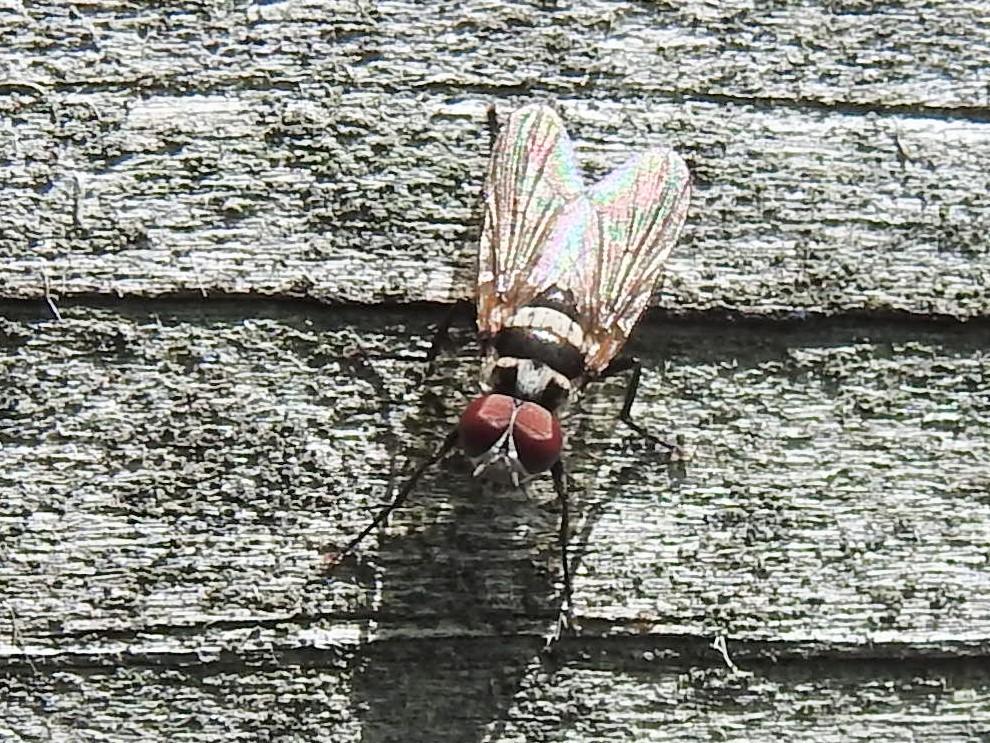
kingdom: Animalia
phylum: Arthropoda
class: Insecta
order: Diptera
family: Anthomyiidae
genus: Anthomyia
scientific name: Anthomyia oculifera
